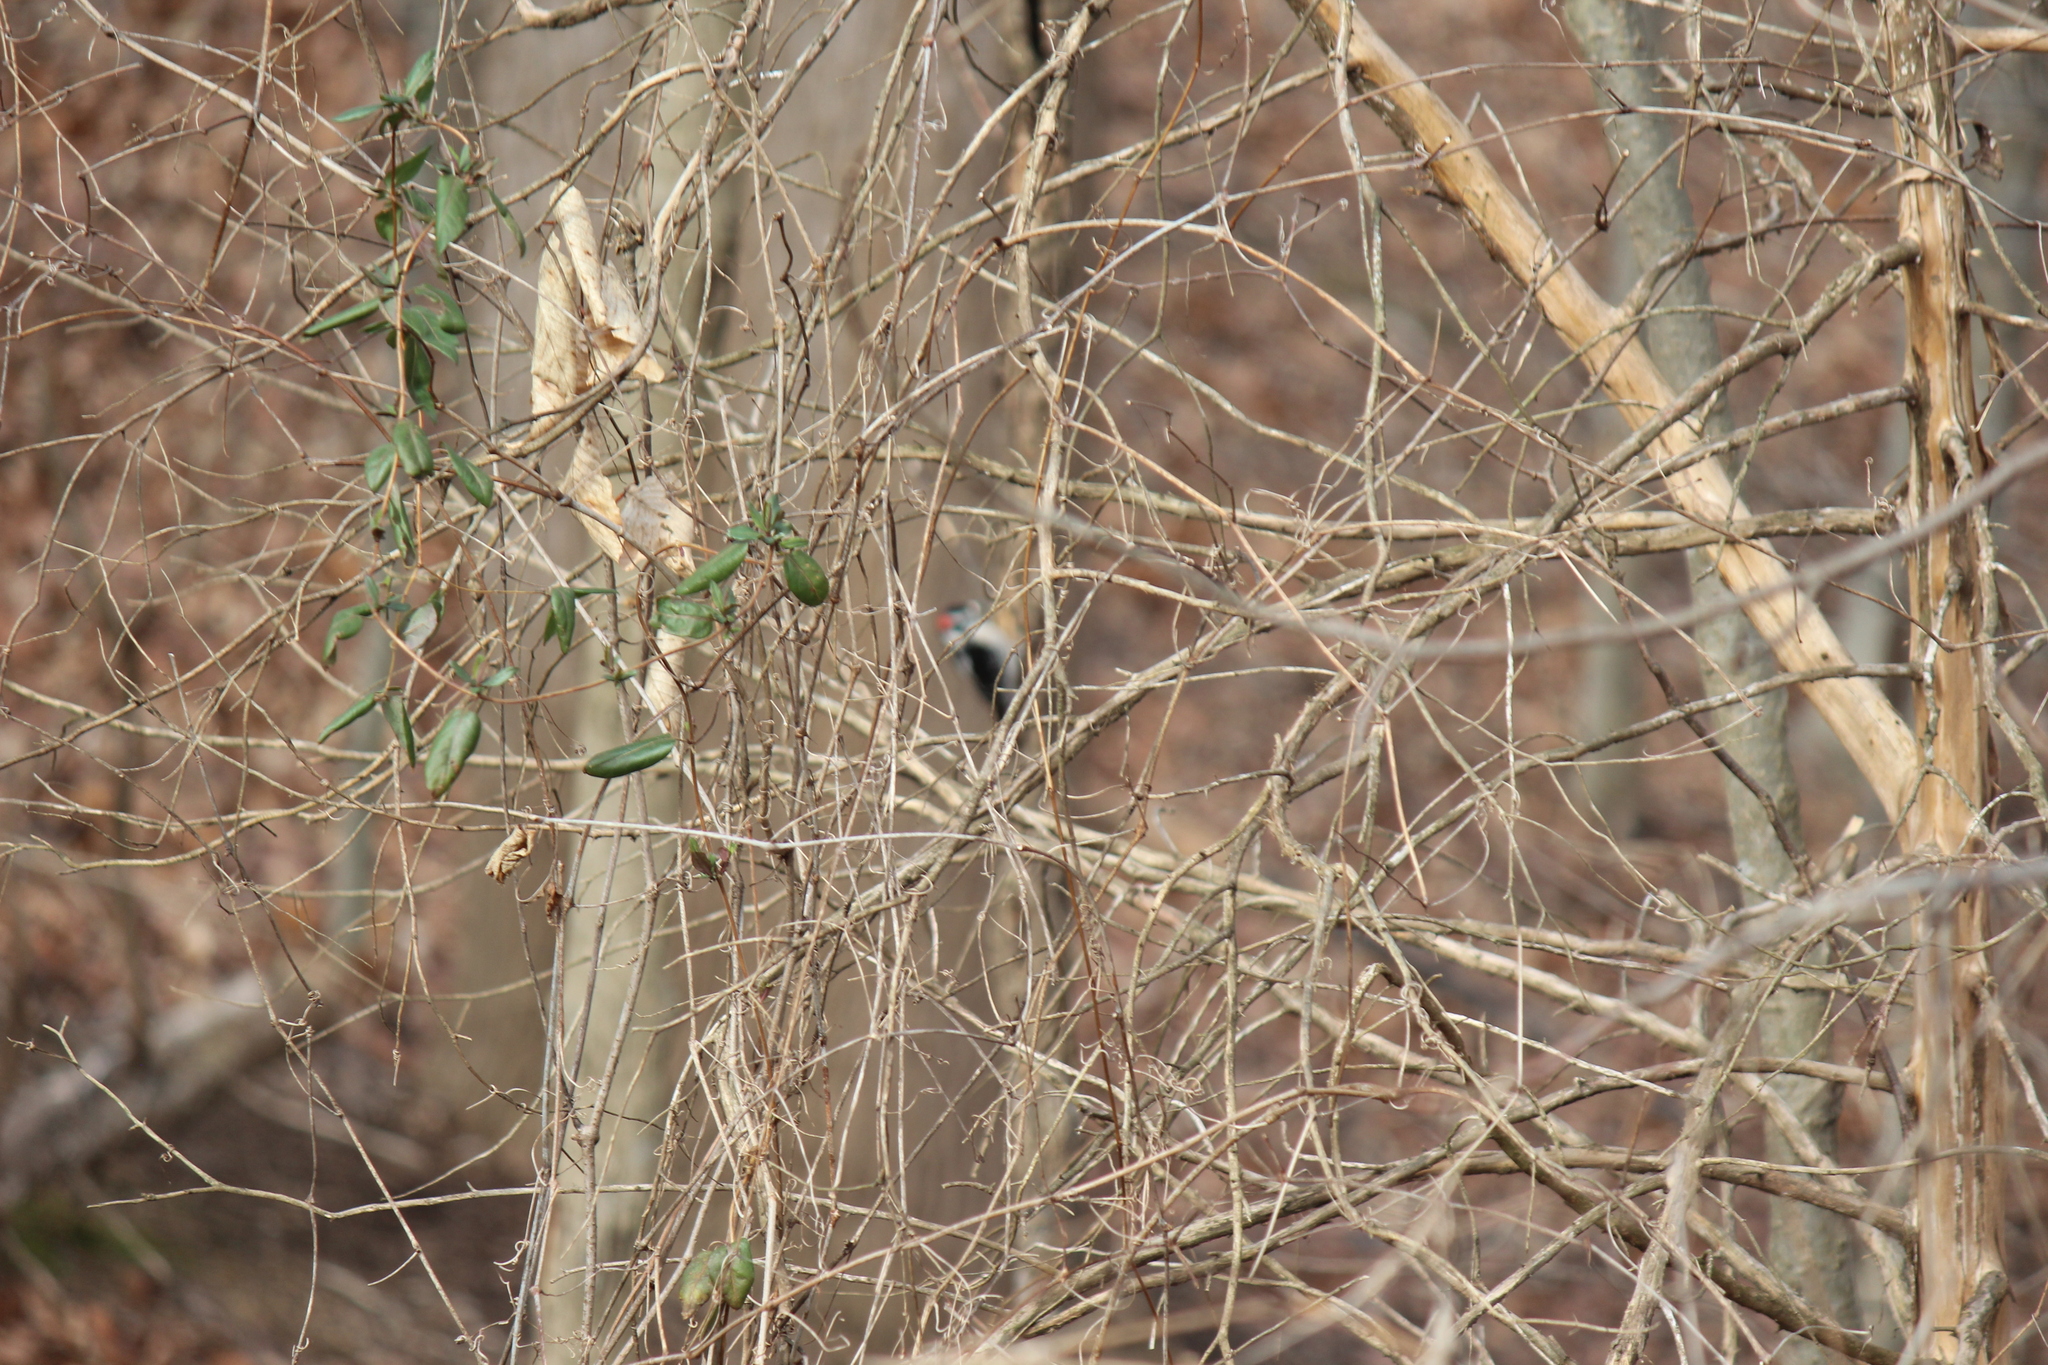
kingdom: Animalia
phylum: Chordata
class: Aves
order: Piciformes
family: Picidae
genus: Dryobates
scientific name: Dryobates pubescens
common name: Downy woodpecker
